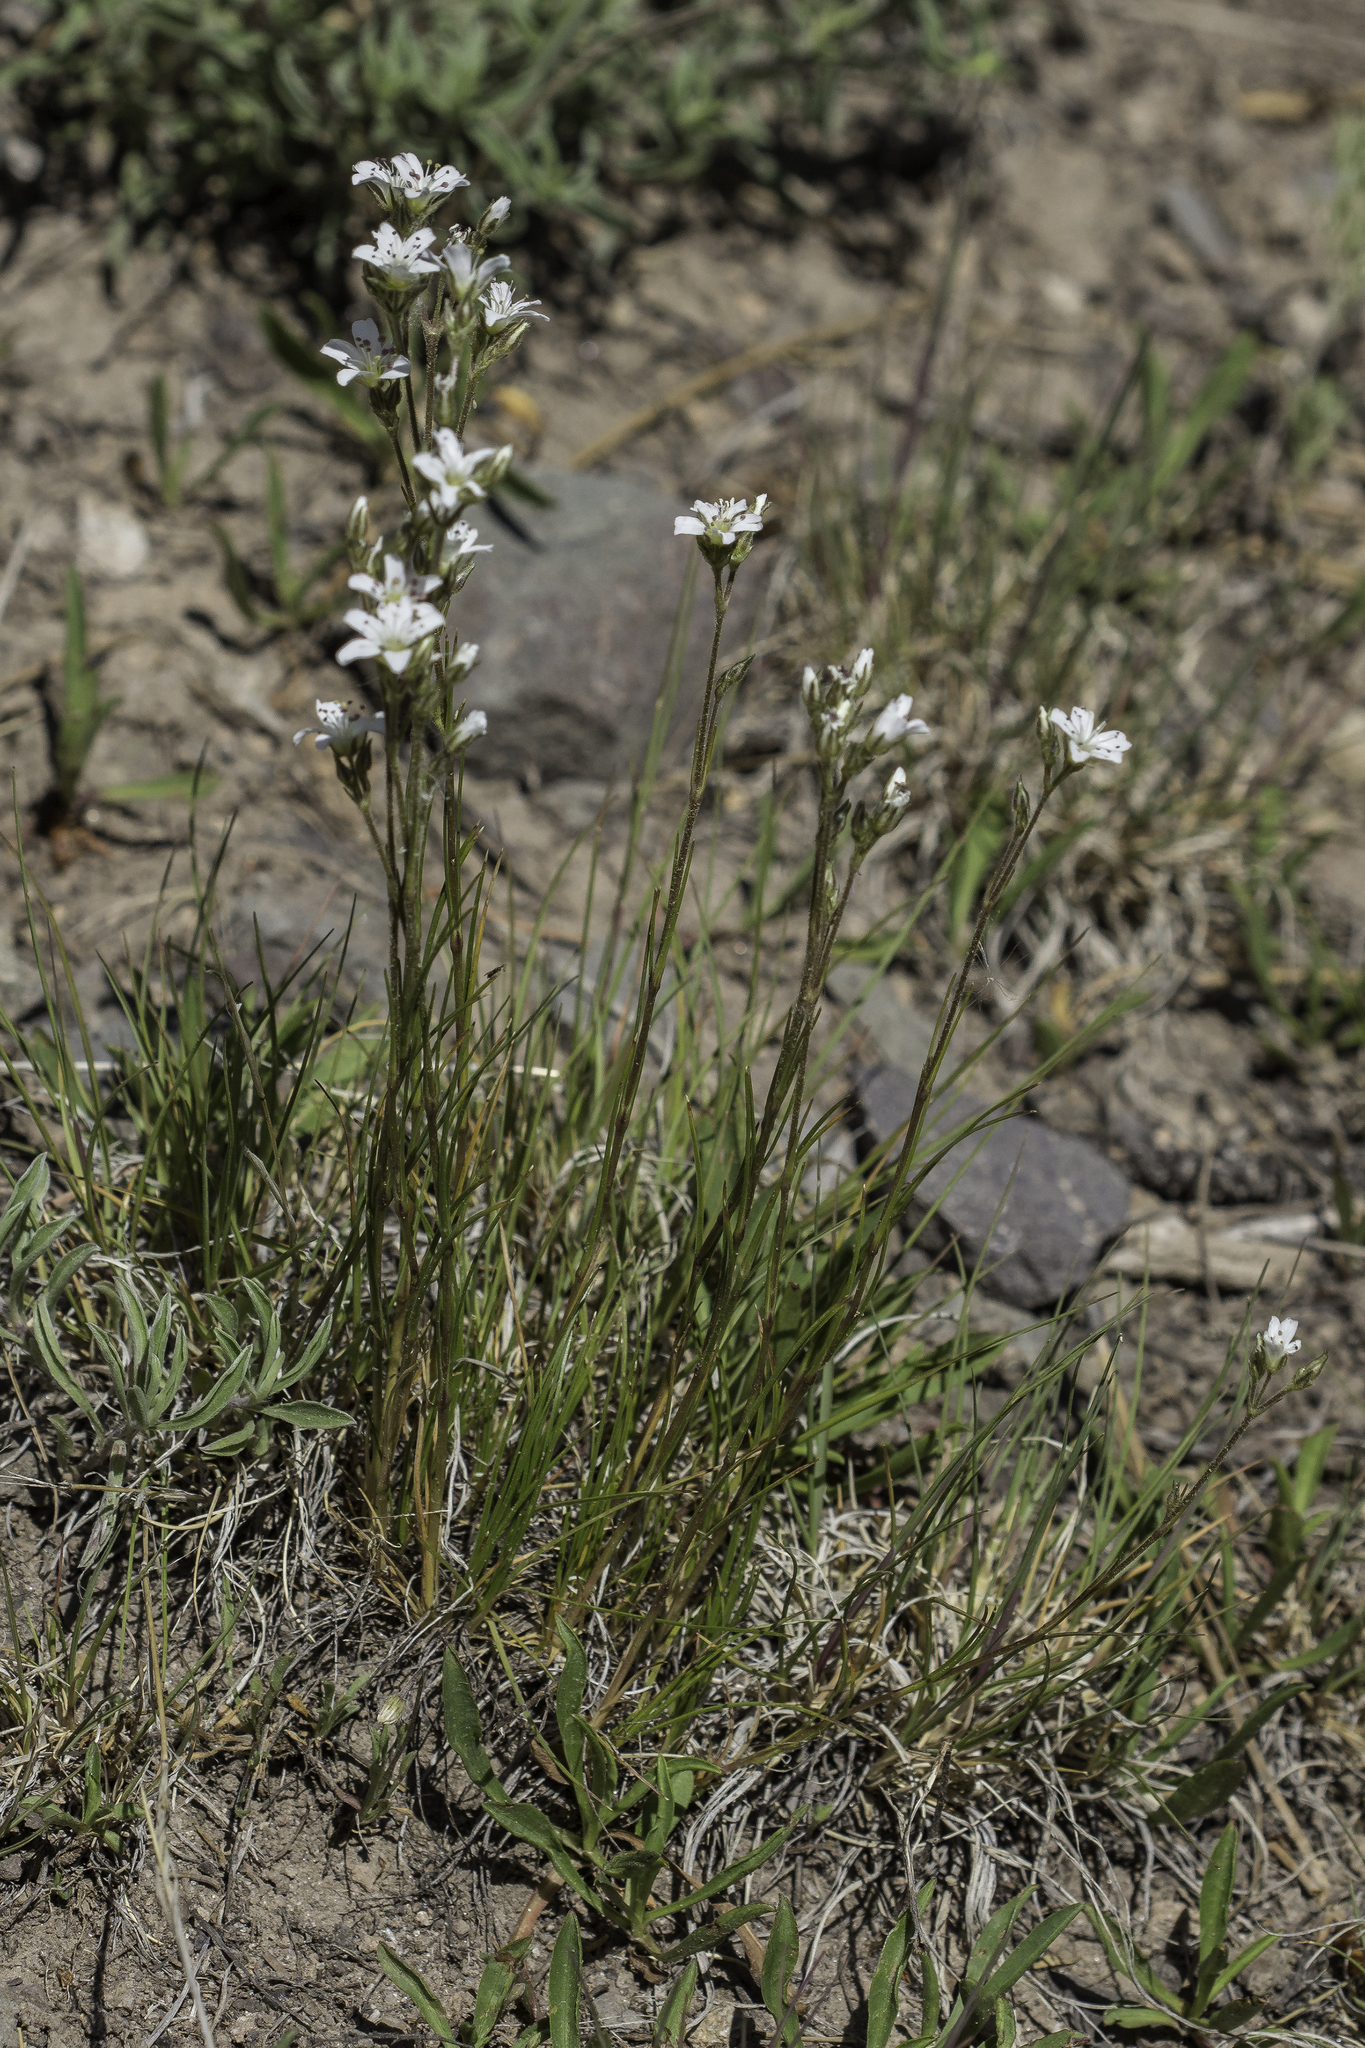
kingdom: Plantae
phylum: Tracheophyta
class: Magnoliopsida
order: Caryophyllales
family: Caryophyllaceae
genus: Eremogone
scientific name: Eremogone fendleri
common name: Fendler's sandwort
